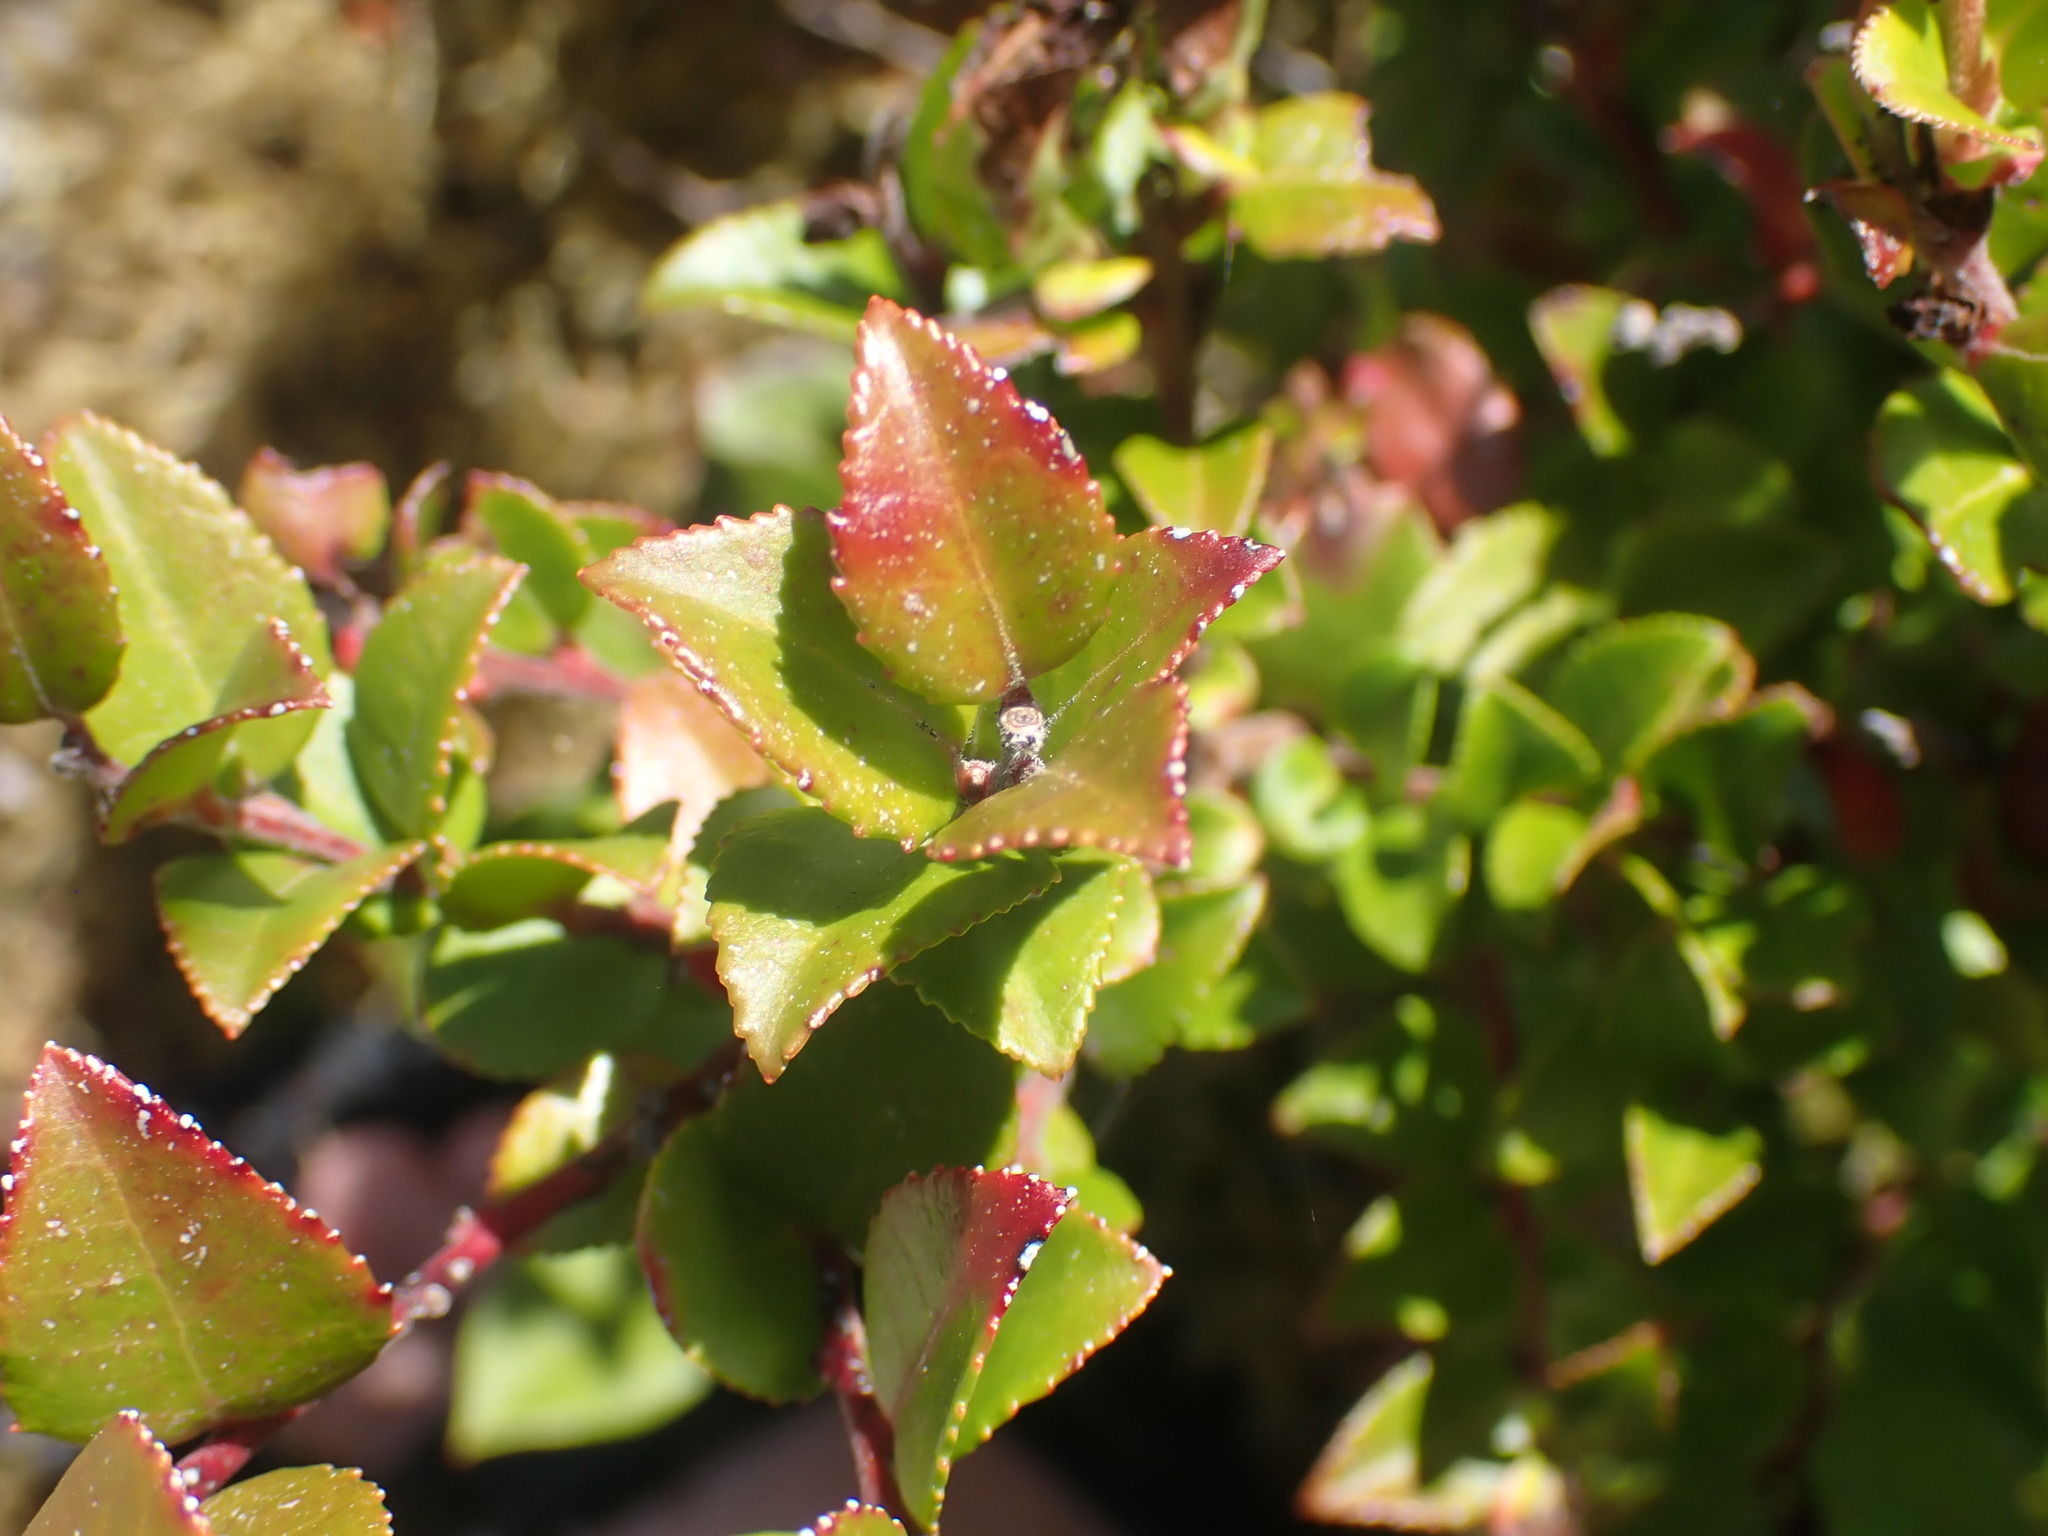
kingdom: Plantae
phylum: Tracheophyta
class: Magnoliopsida
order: Ericales
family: Ericaceae
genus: Vaccinium
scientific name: Vaccinium ovatum
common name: California-huckleberry
